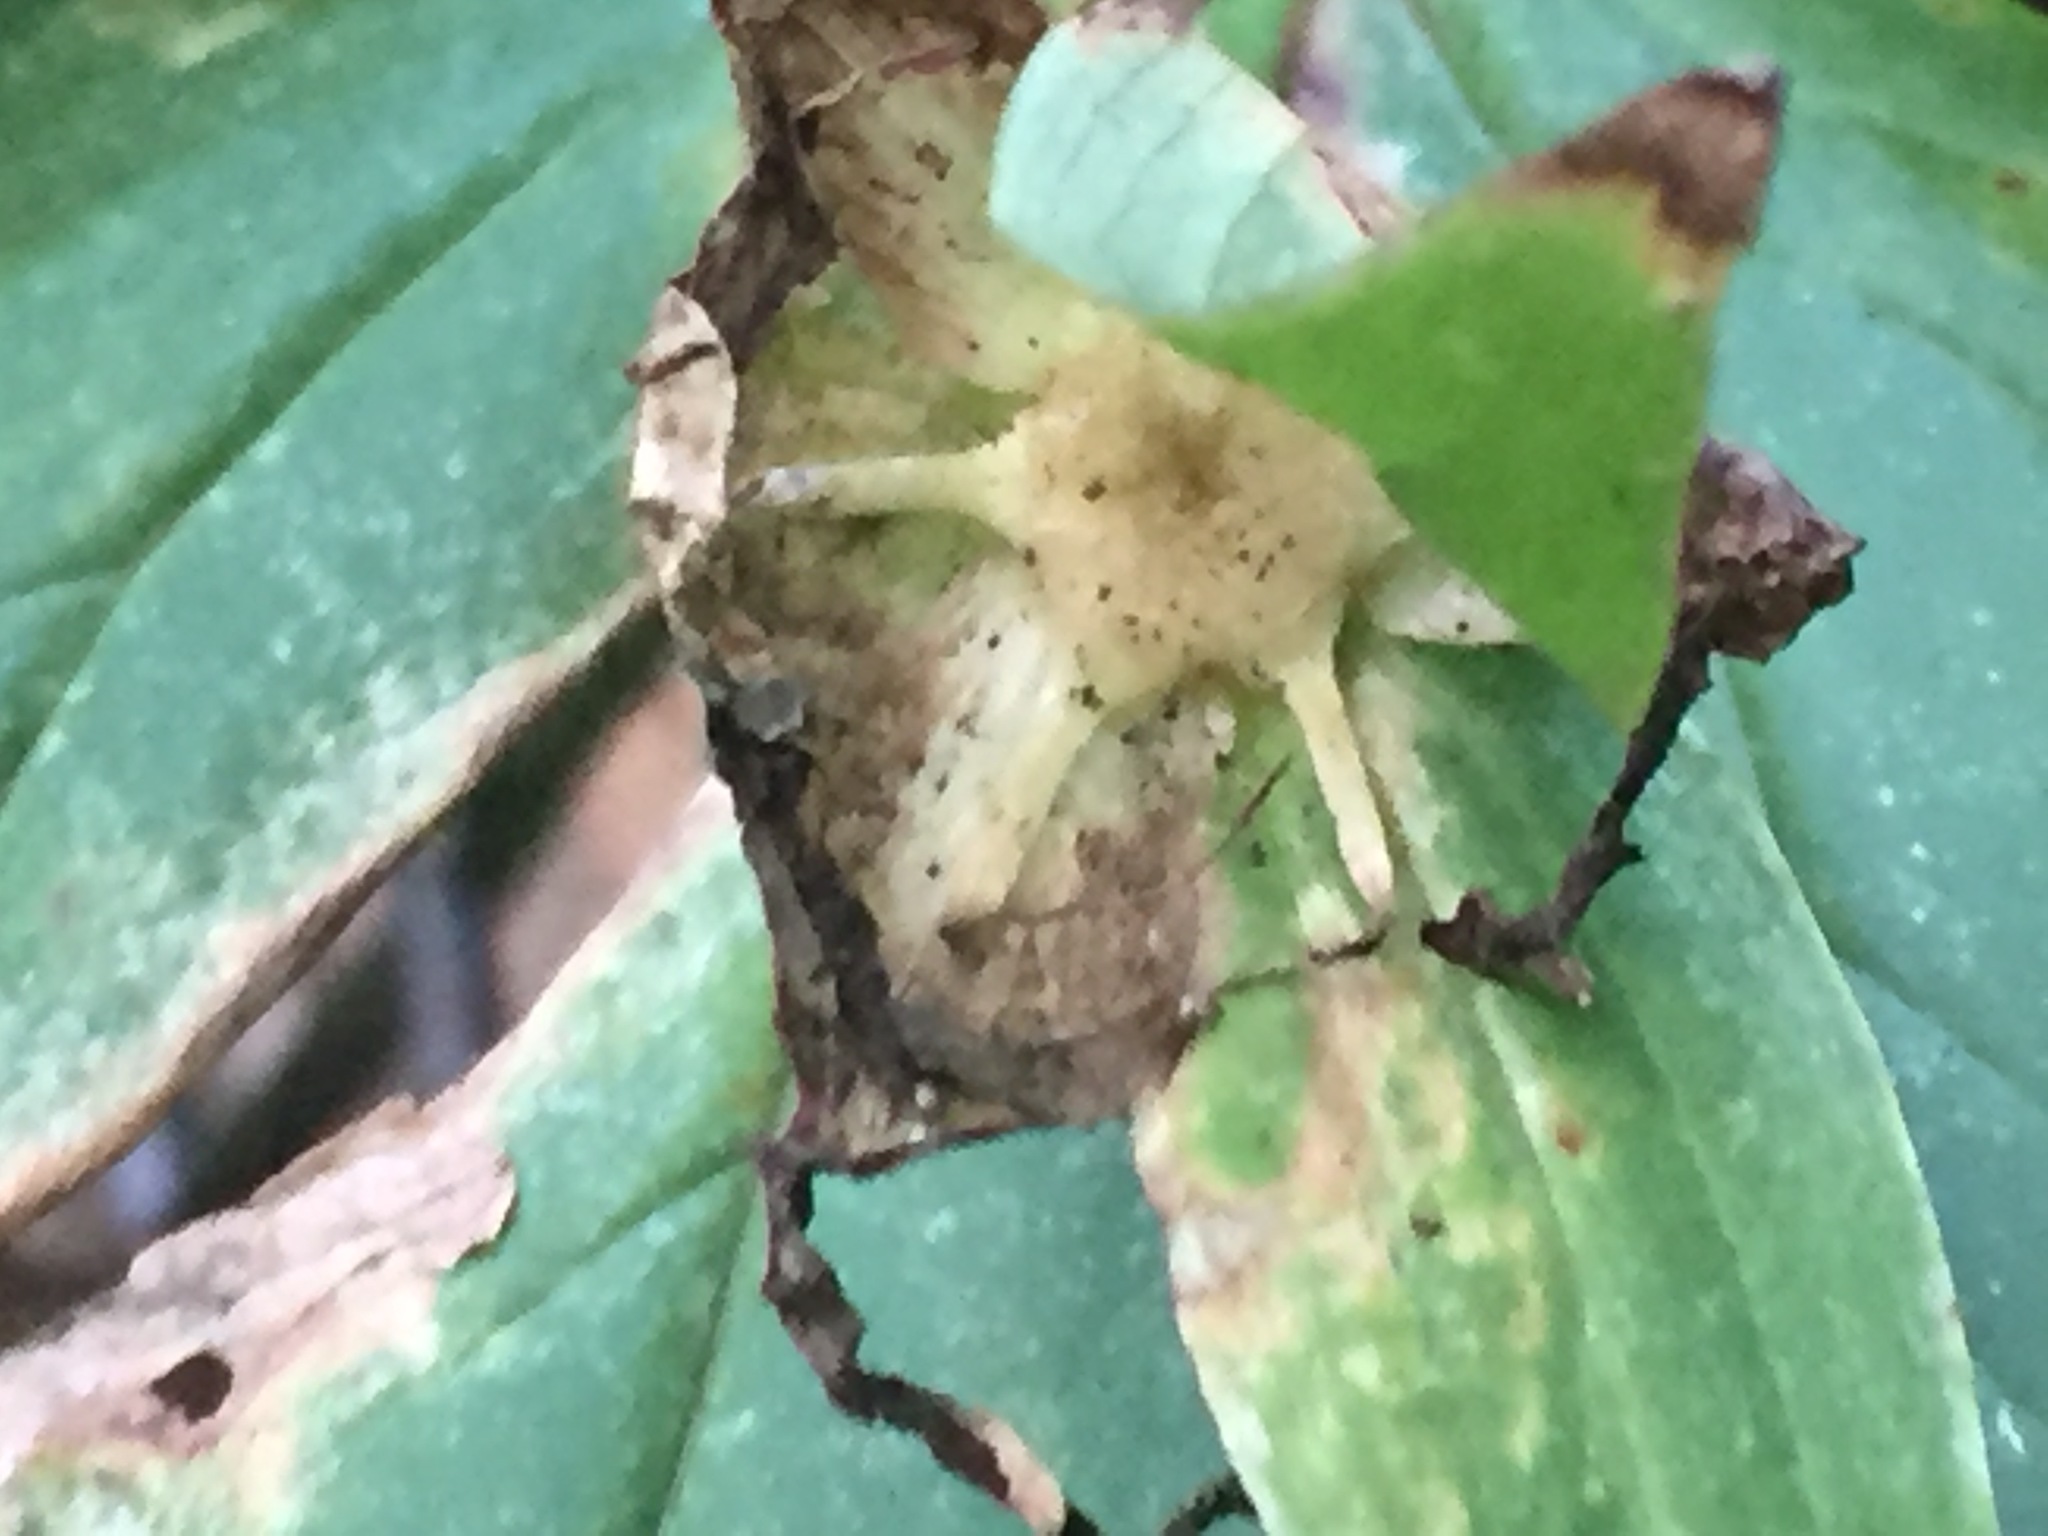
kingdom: Plantae
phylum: Tracheophyta
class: Liliopsida
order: Liliales
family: Melanthiaceae
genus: Trillium
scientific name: Trillium grandiflorum
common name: Great white trillium
